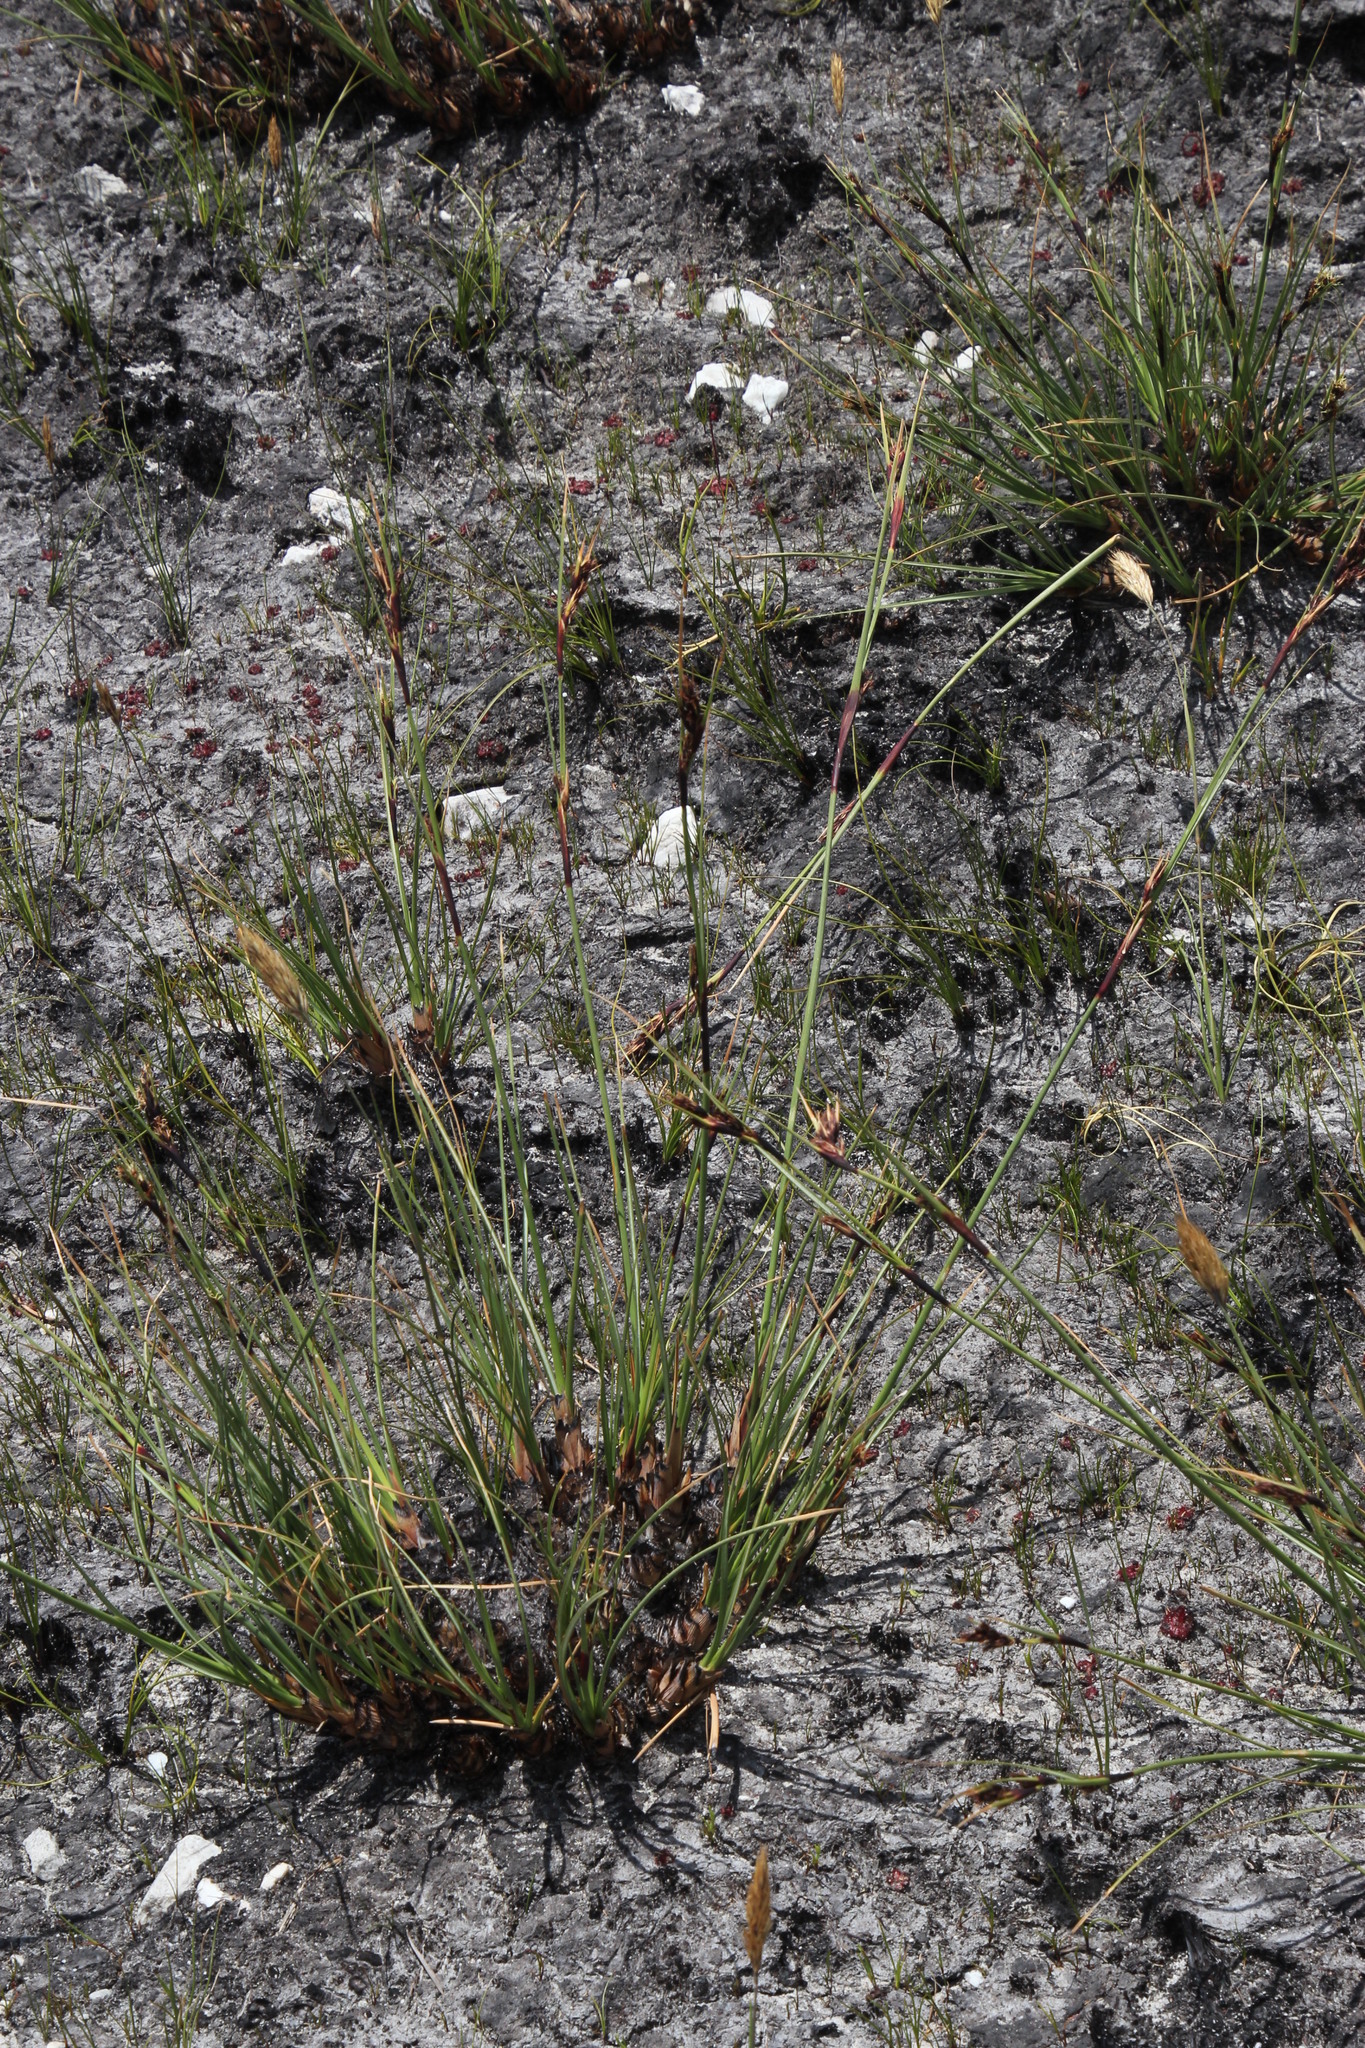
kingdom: Plantae
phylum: Tracheophyta
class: Liliopsida
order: Poales
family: Cyperaceae
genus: Cyathocoma
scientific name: Cyathocoma hexandra
